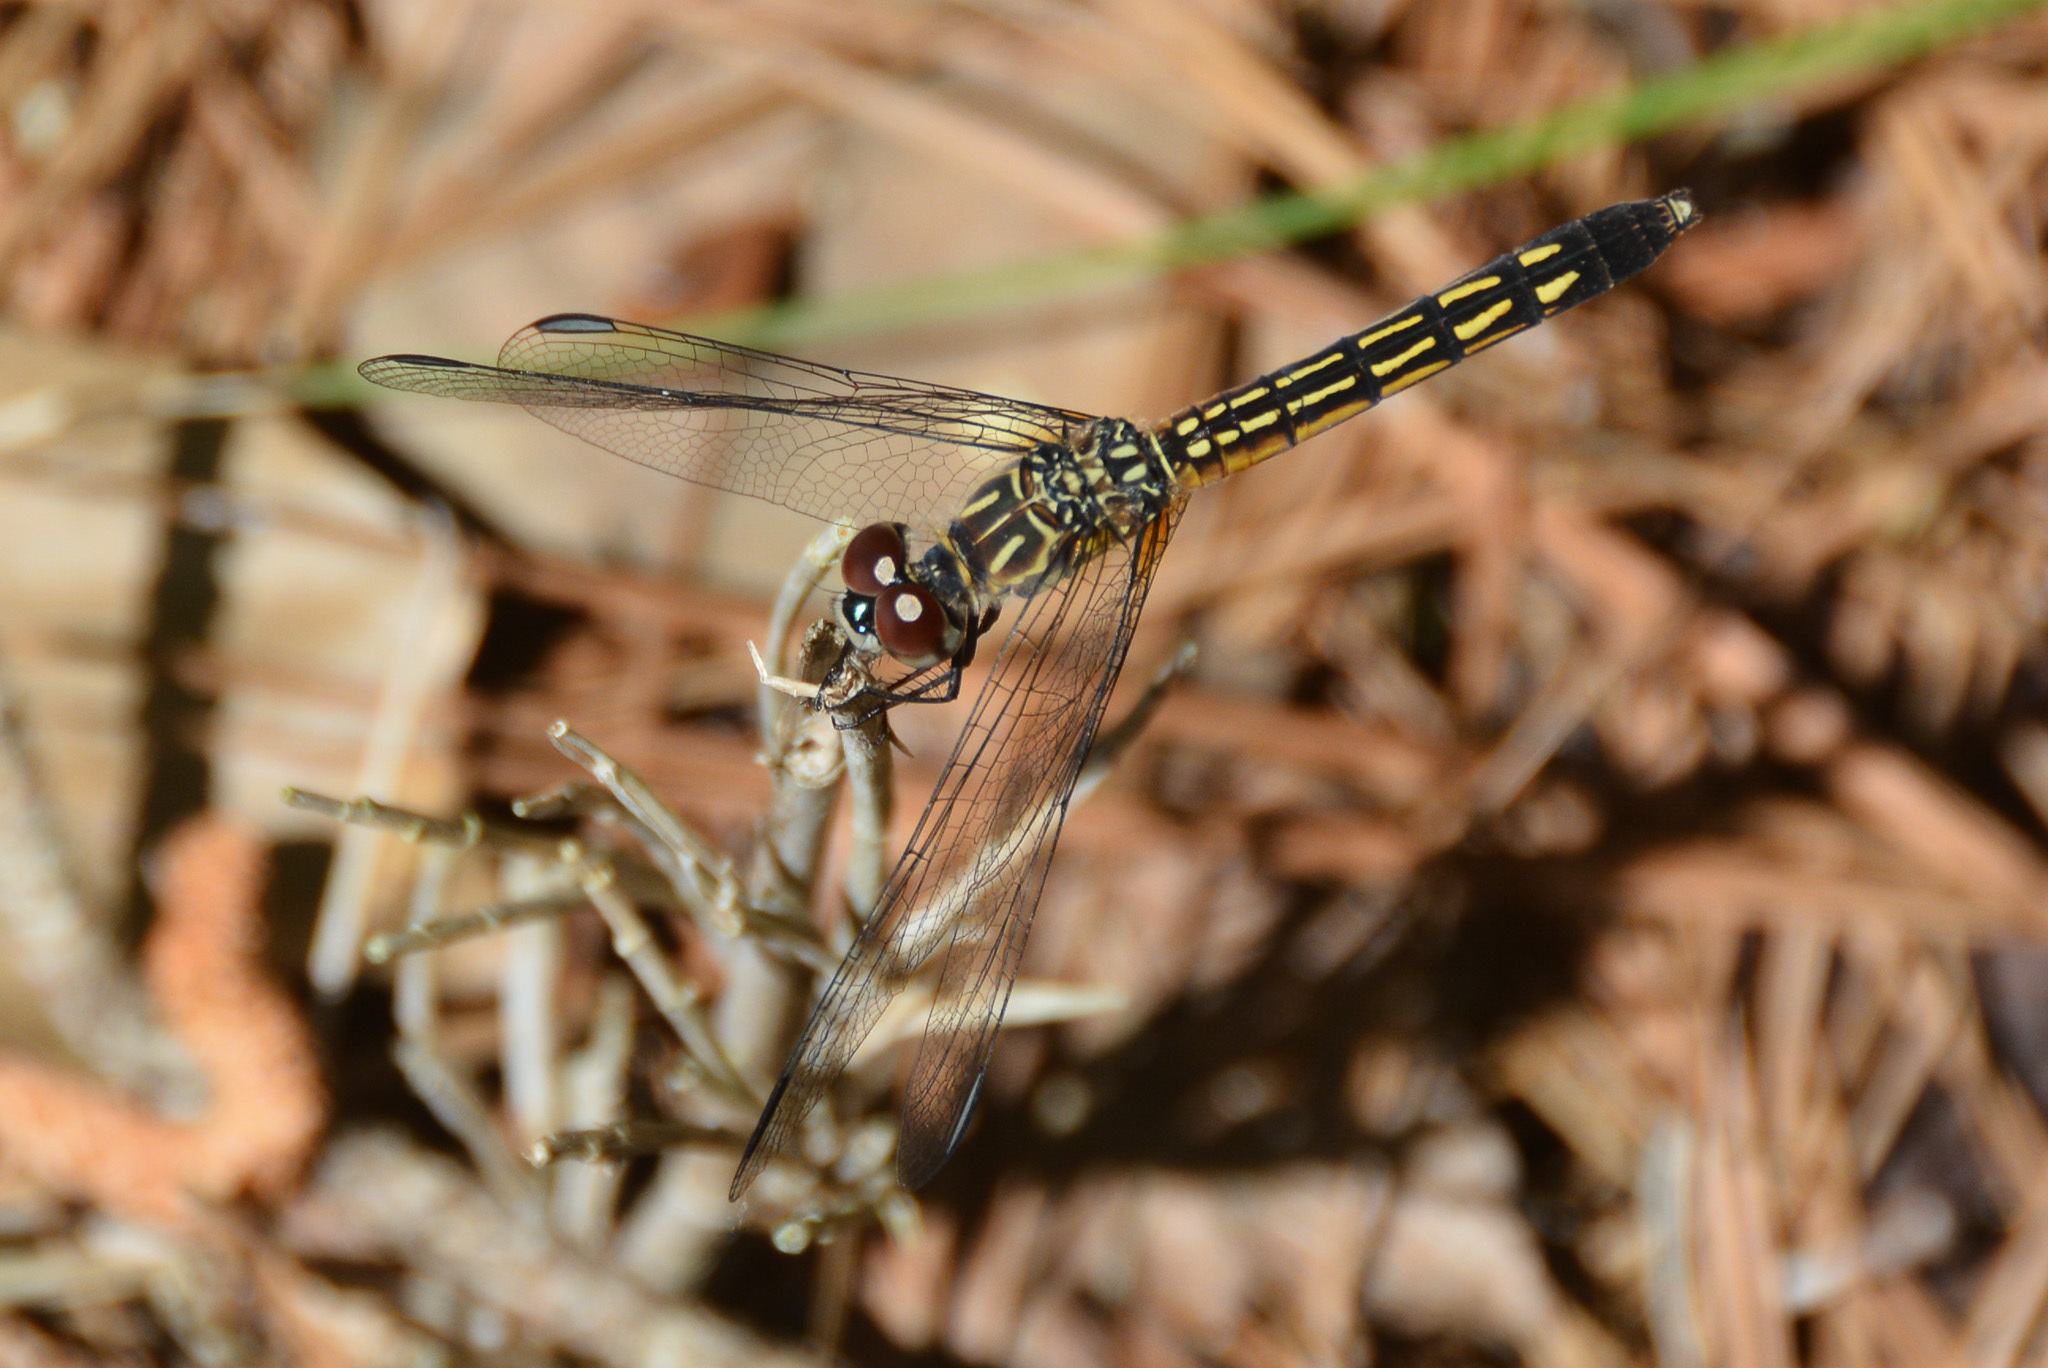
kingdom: Animalia
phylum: Arthropoda
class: Insecta
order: Odonata
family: Libellulidae
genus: Pachydiplax
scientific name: Pachydiplax longipennis
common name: Blue dasher
